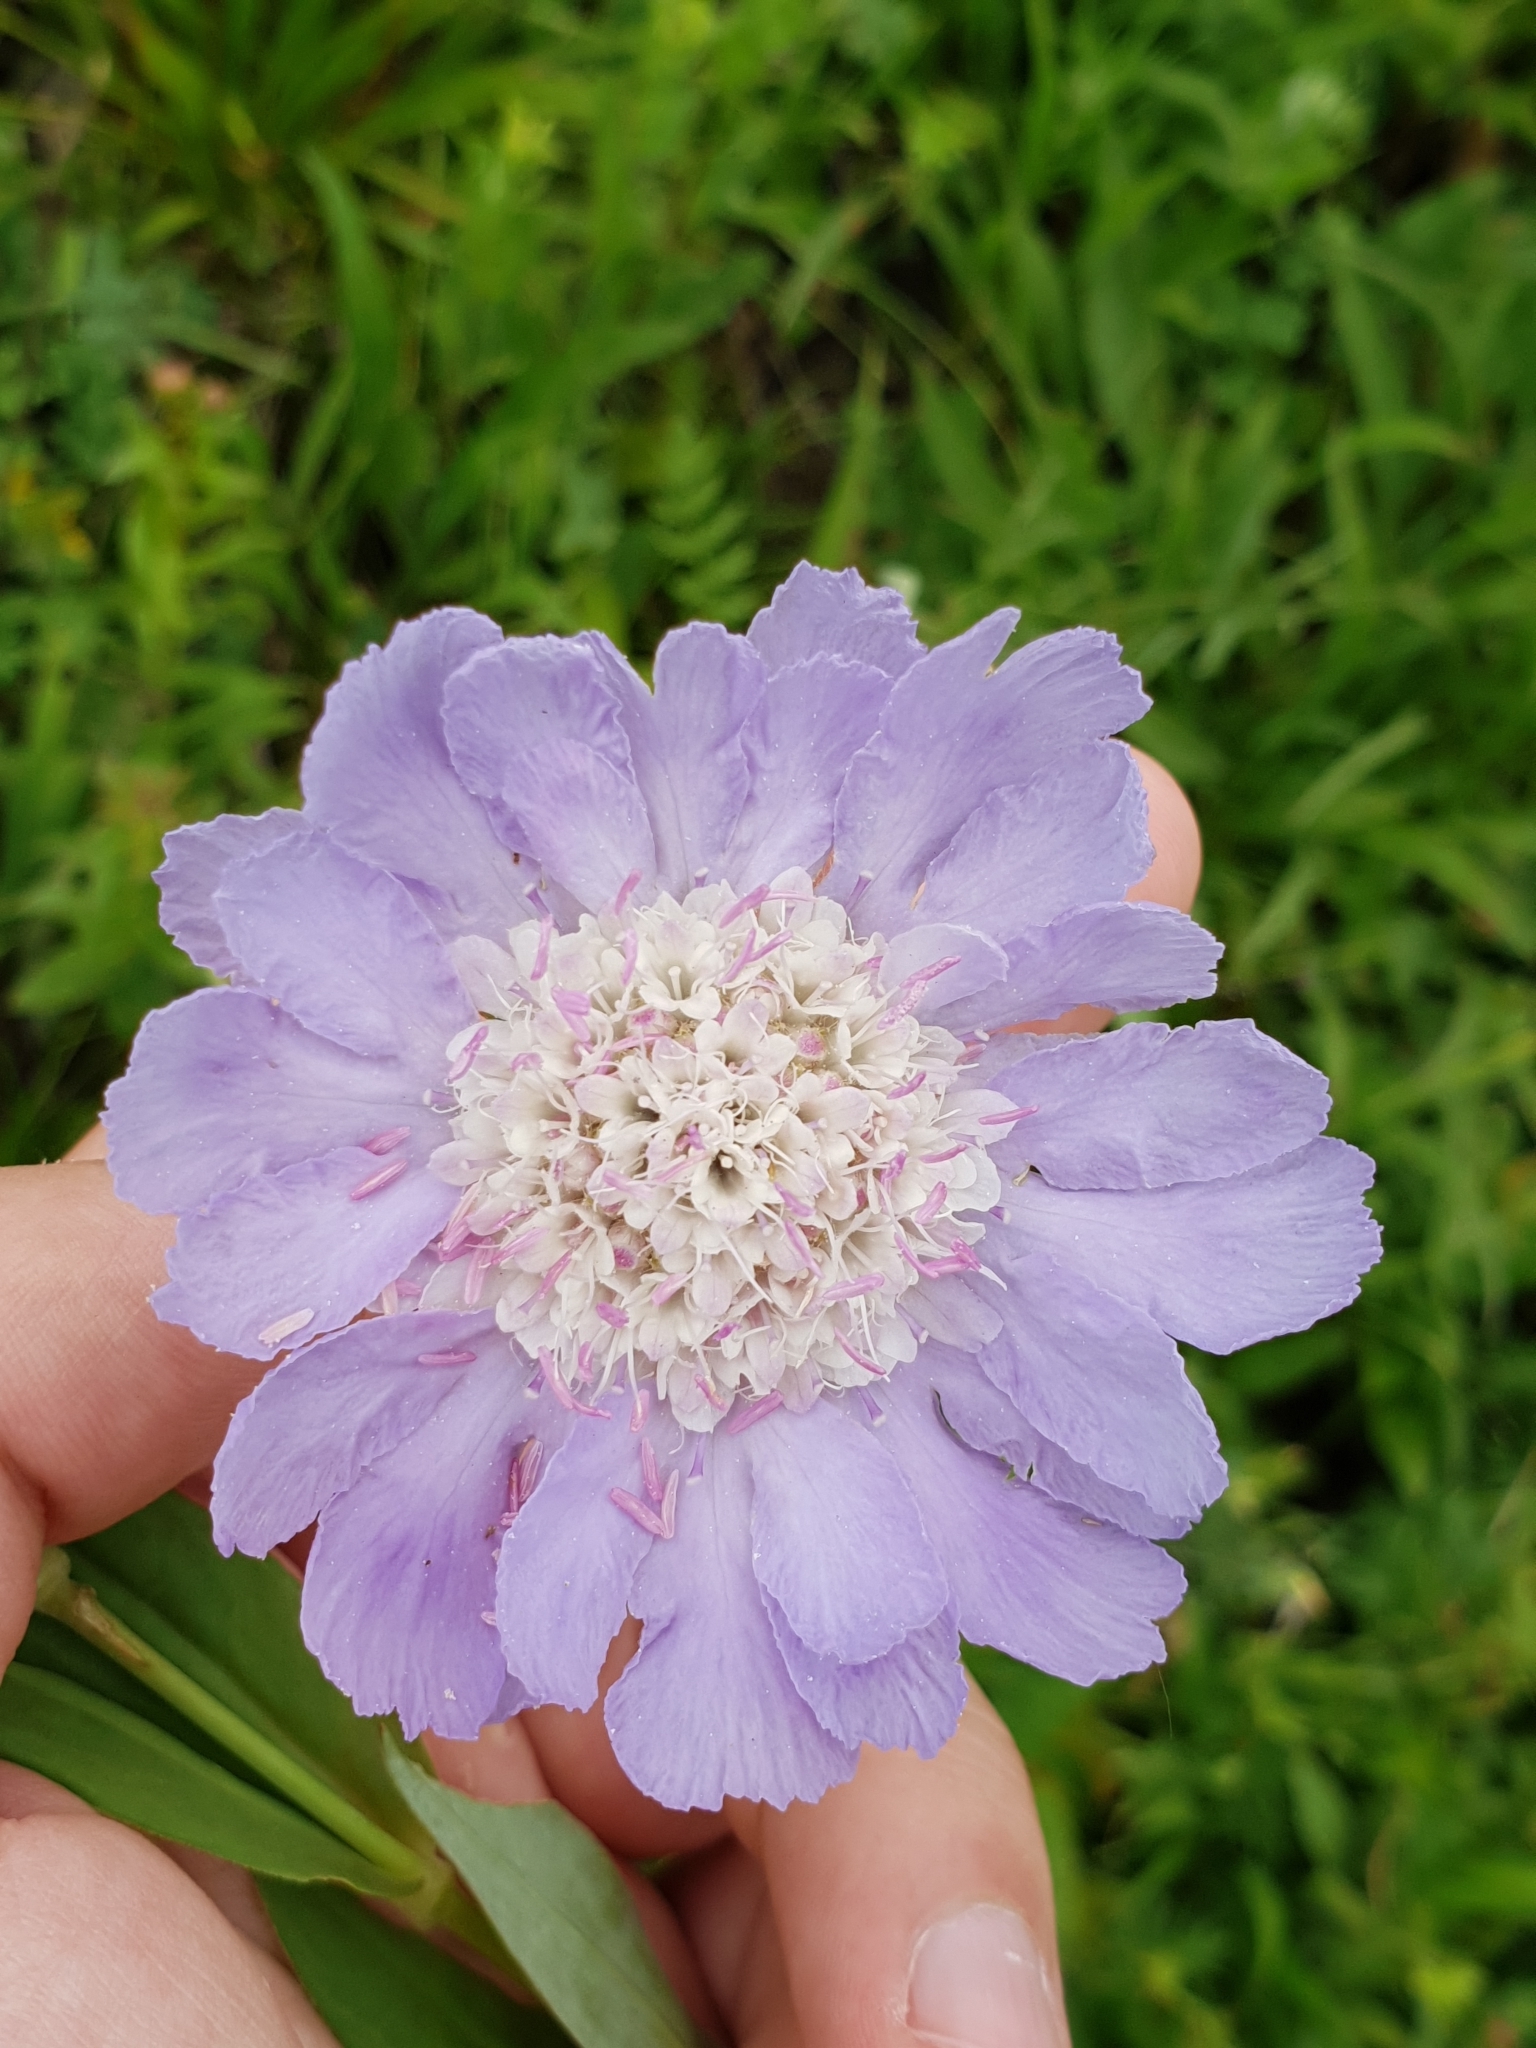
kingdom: Plantae
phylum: Tracheophyta
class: Magnoliopsida
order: Dipsacales
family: Caprifoliaceae
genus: Lomelosia
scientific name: Lomelosia caucasica
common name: Pincushion-flower
